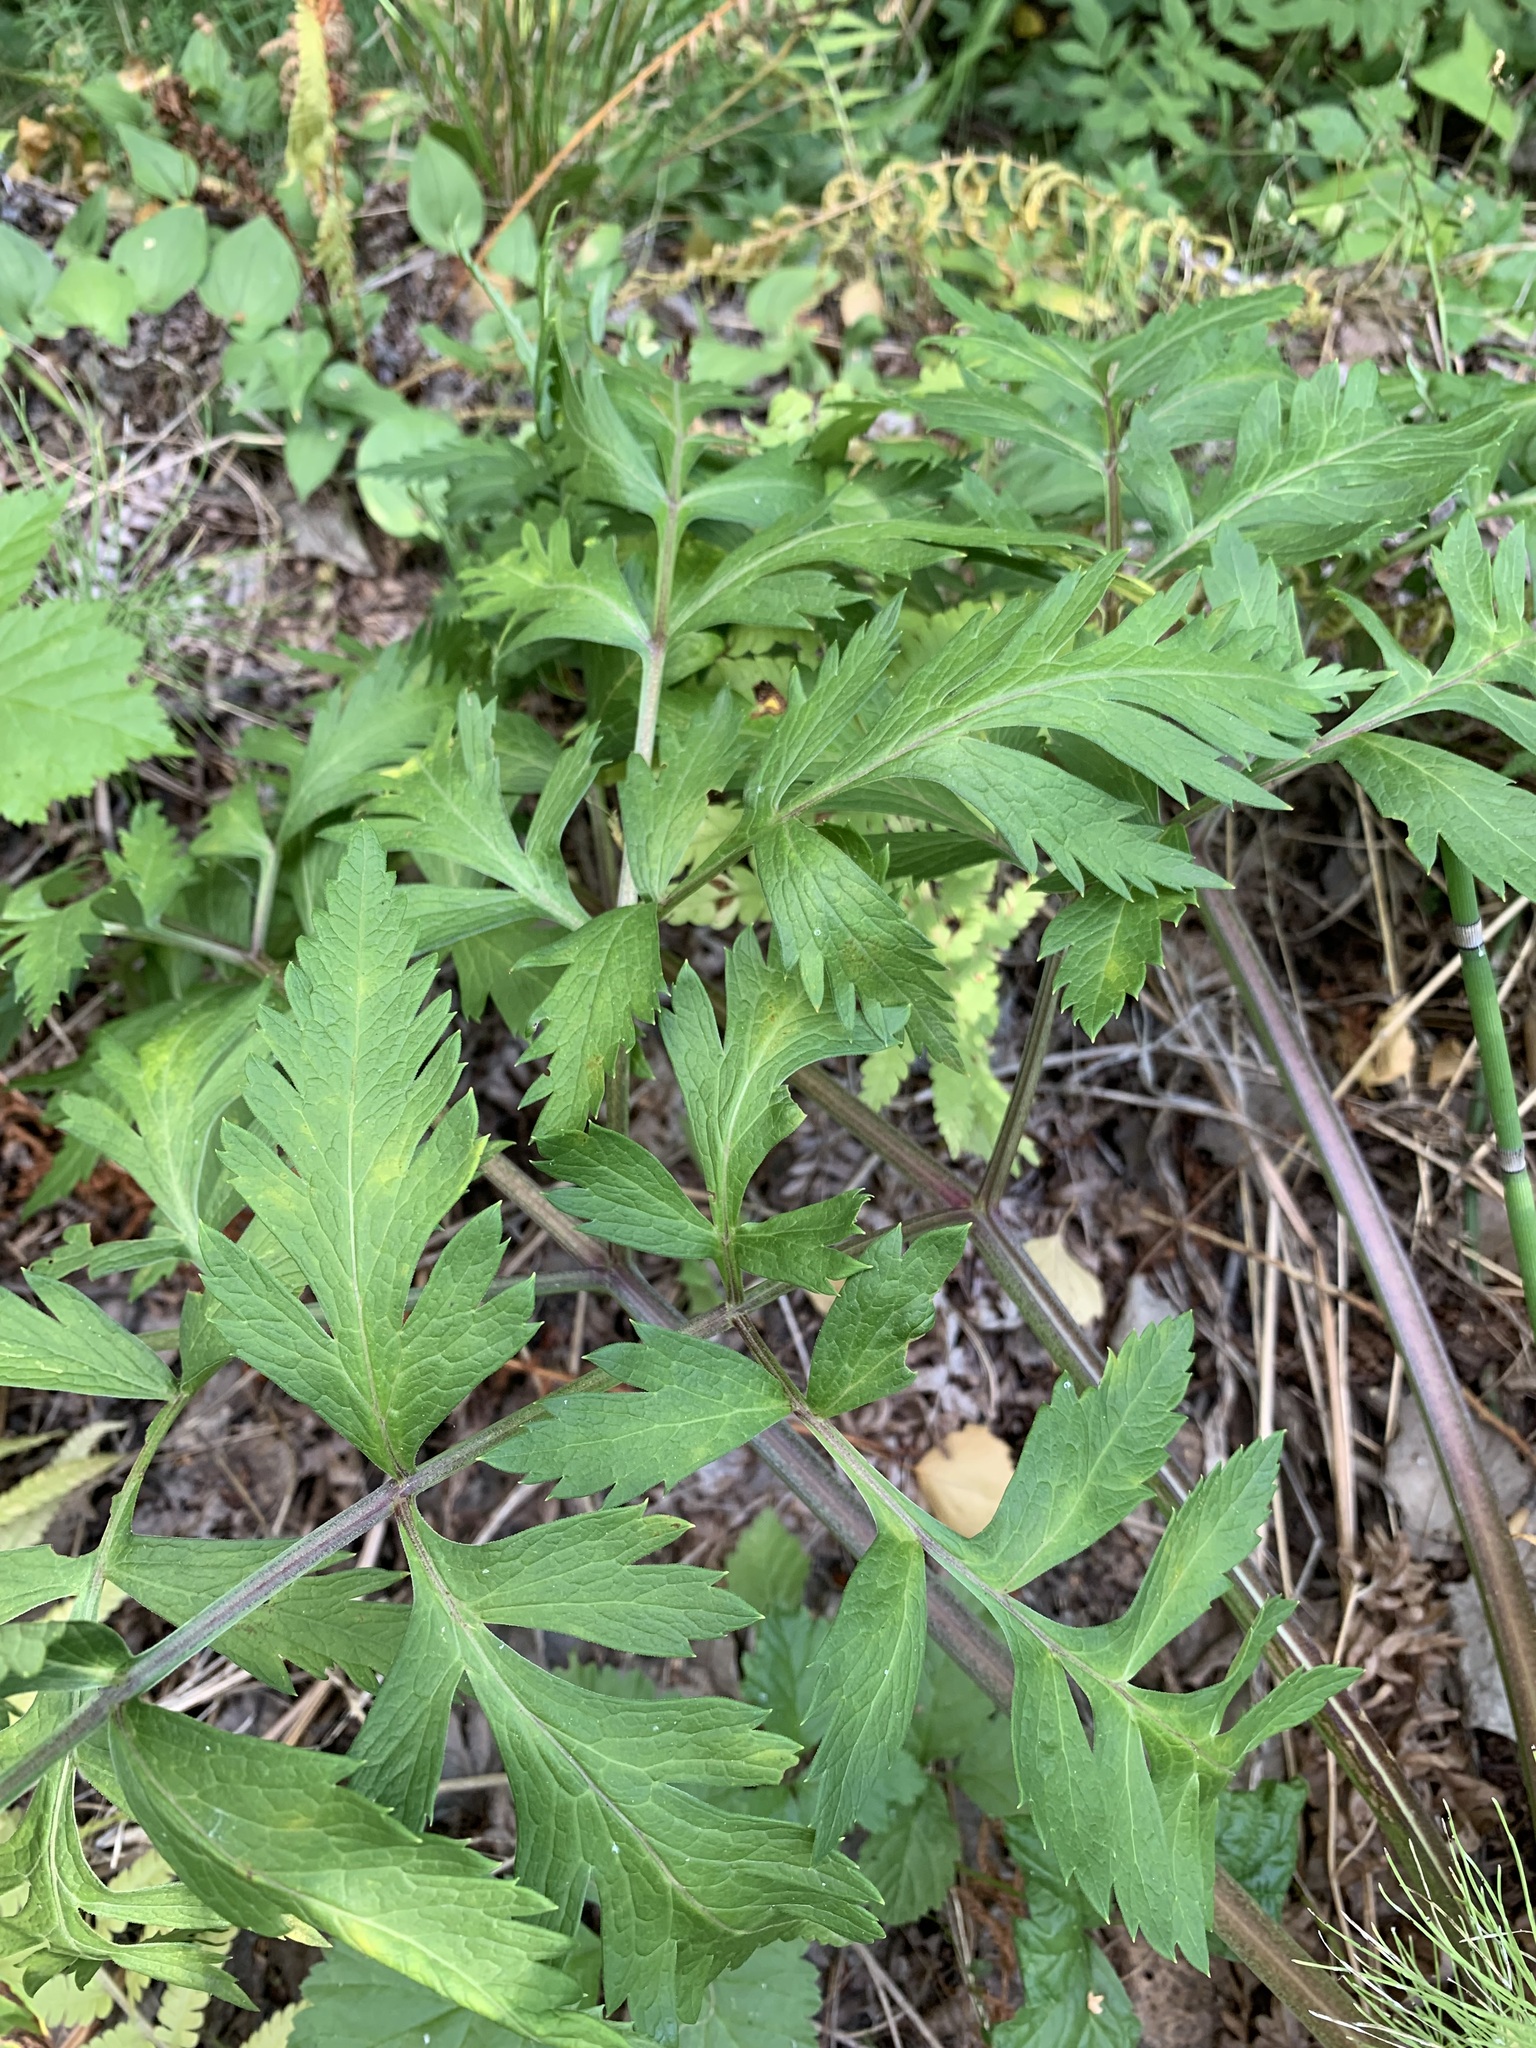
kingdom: Plantae
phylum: Tracheophyta
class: Magnoliopsida
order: Apiales
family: Apiaceae
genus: Pleurospermum
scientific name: Pleurospermum uralense
